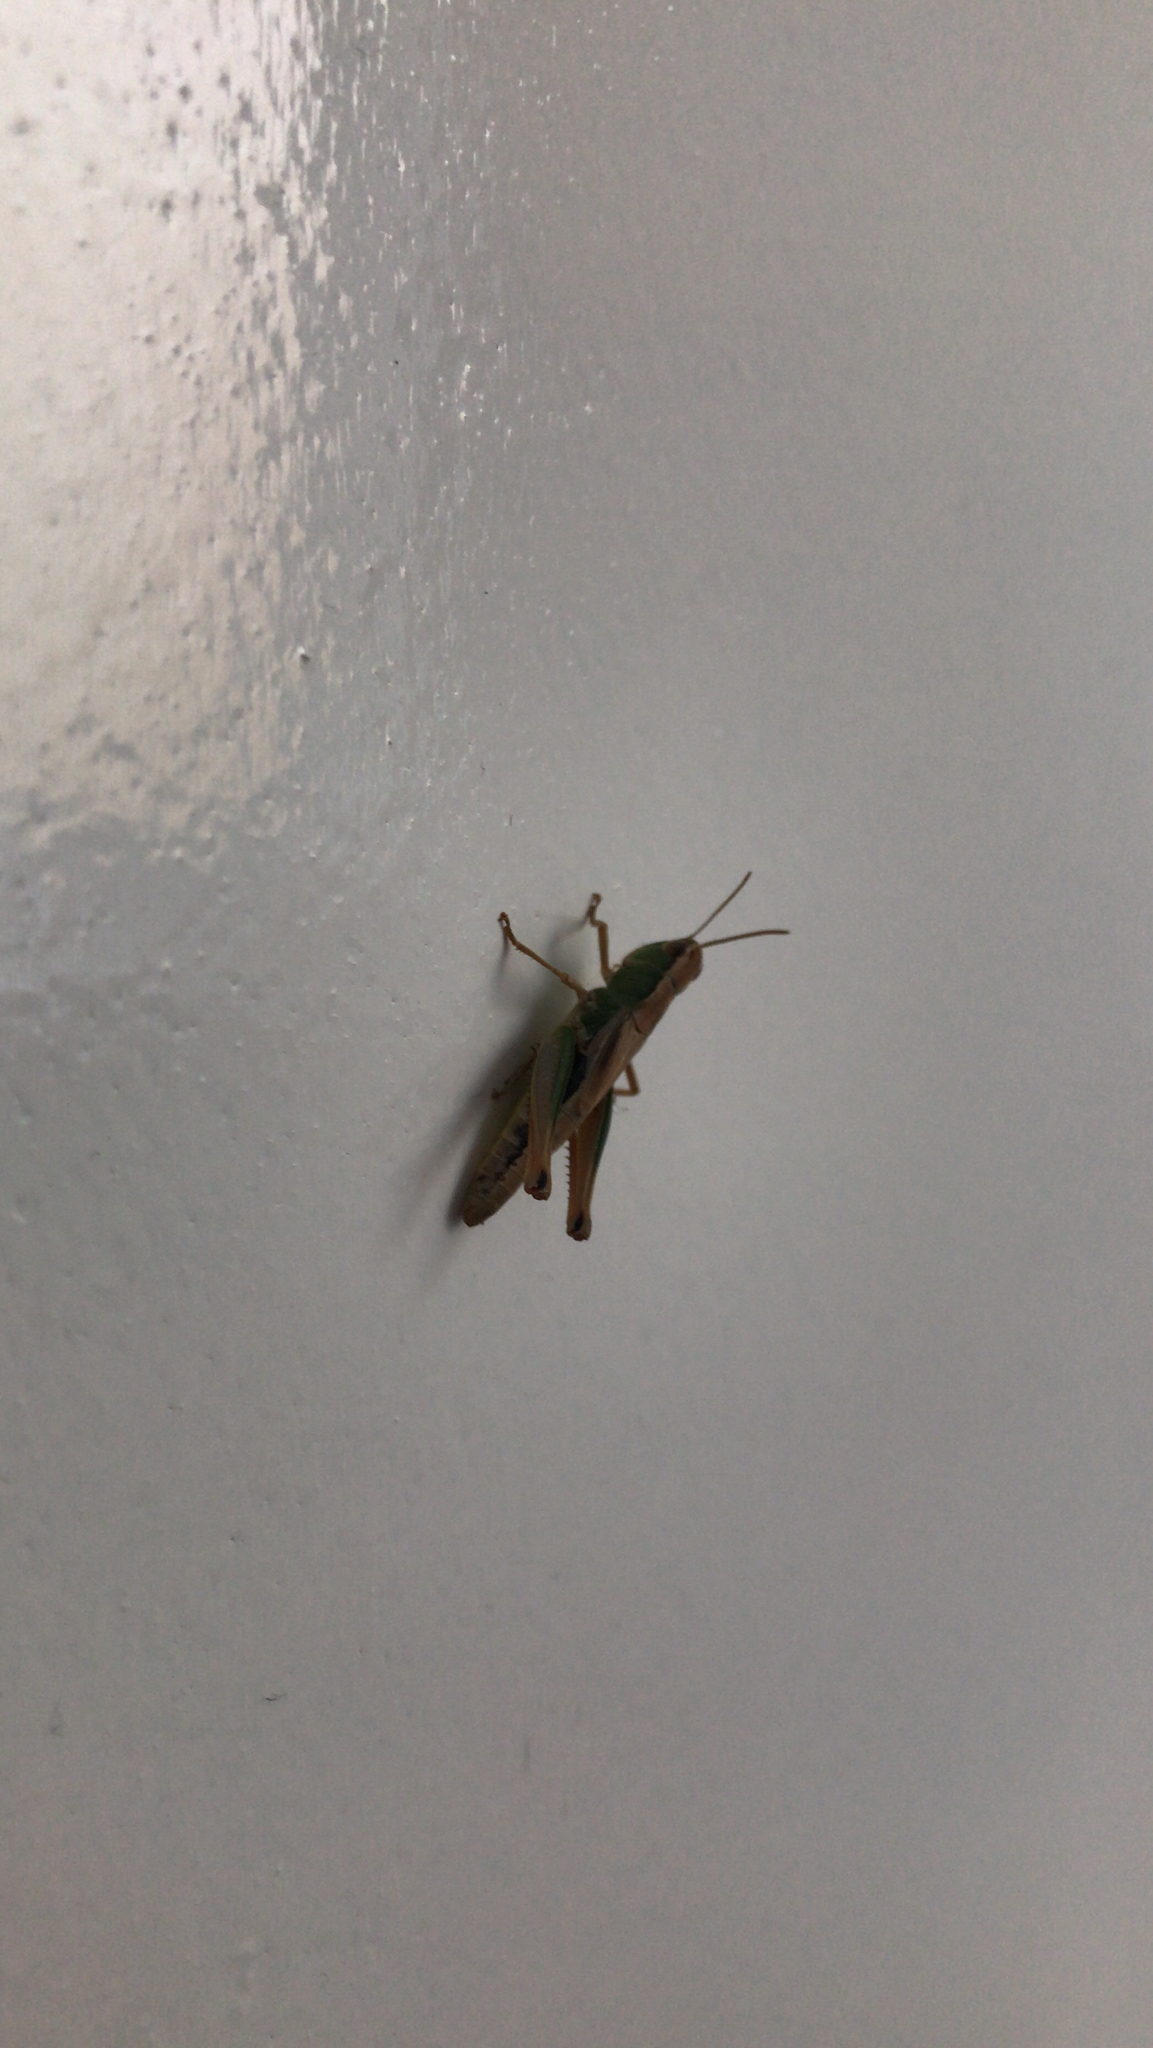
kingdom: Animalia
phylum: Arthropoda
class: Insecta
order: Orthoptera
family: Acrididae
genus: Pseudochorthippus
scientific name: Pseudochorthippus parallelus
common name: Meadow grasshopper
